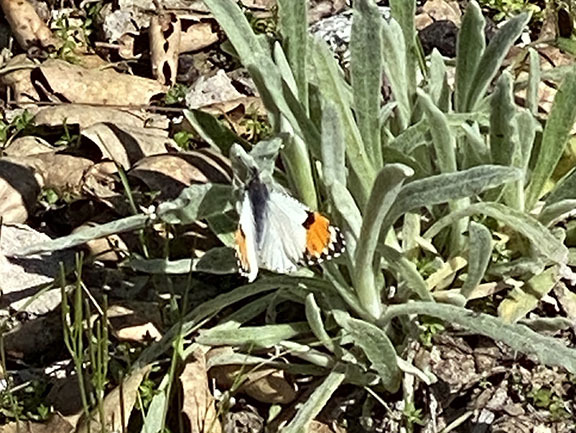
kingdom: Animalia
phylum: Arthropoda
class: Insecta
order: Lepidoptera
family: Pieridae
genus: Anthocharis
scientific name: Anthocharis sara
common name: Sara's orangetip
